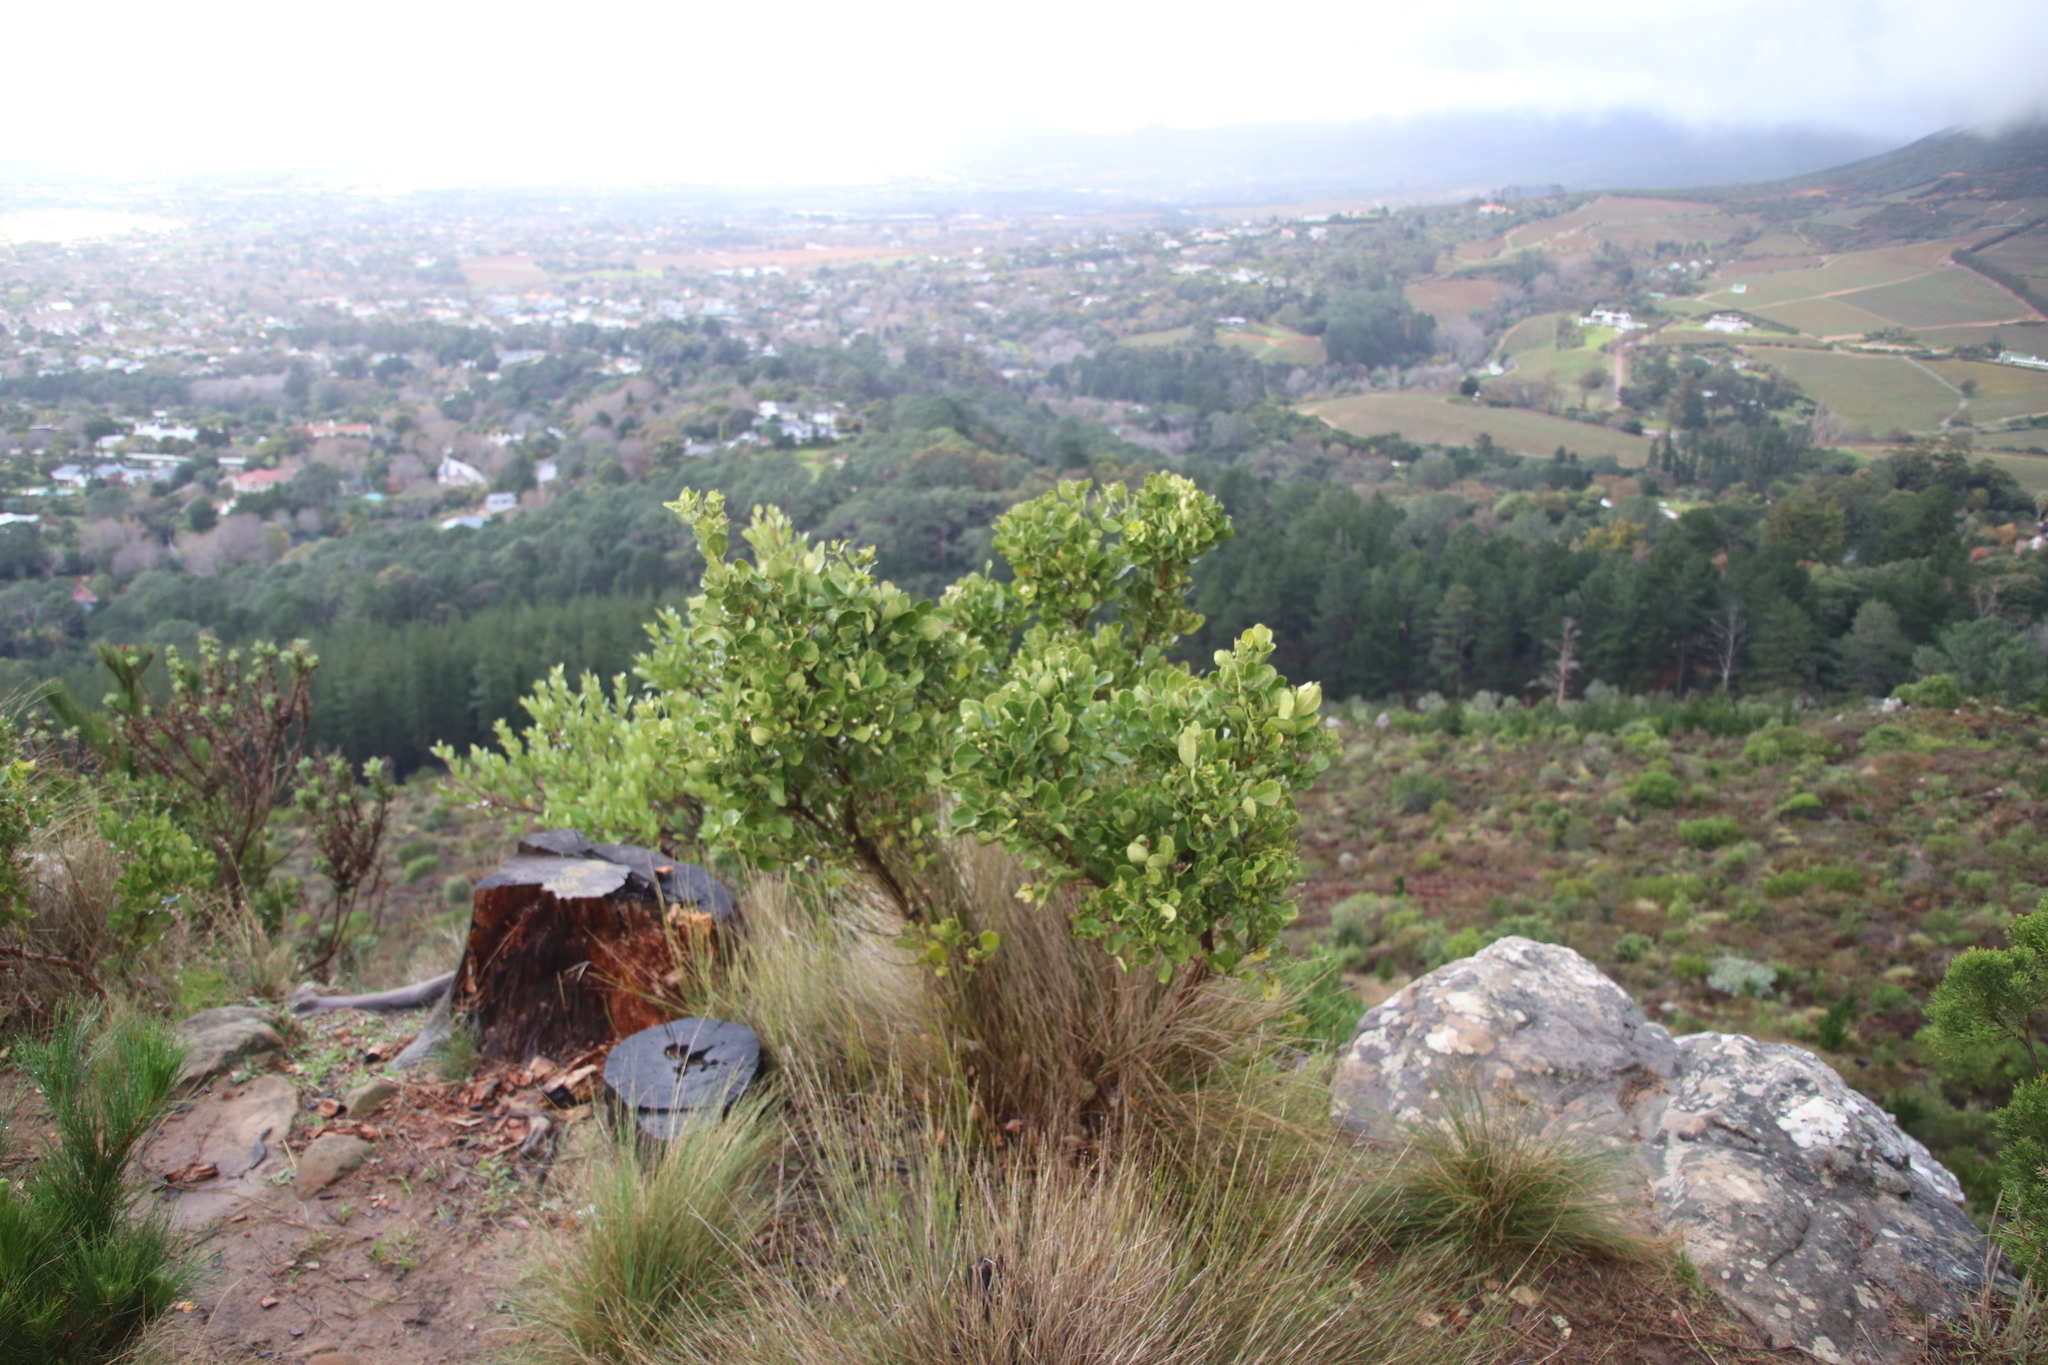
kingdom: Plantae
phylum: Tracheophyta
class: Magnoliopsida
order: Lamiales
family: Oleaceae
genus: Olea
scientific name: Olea capensis
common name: Black ironwood
